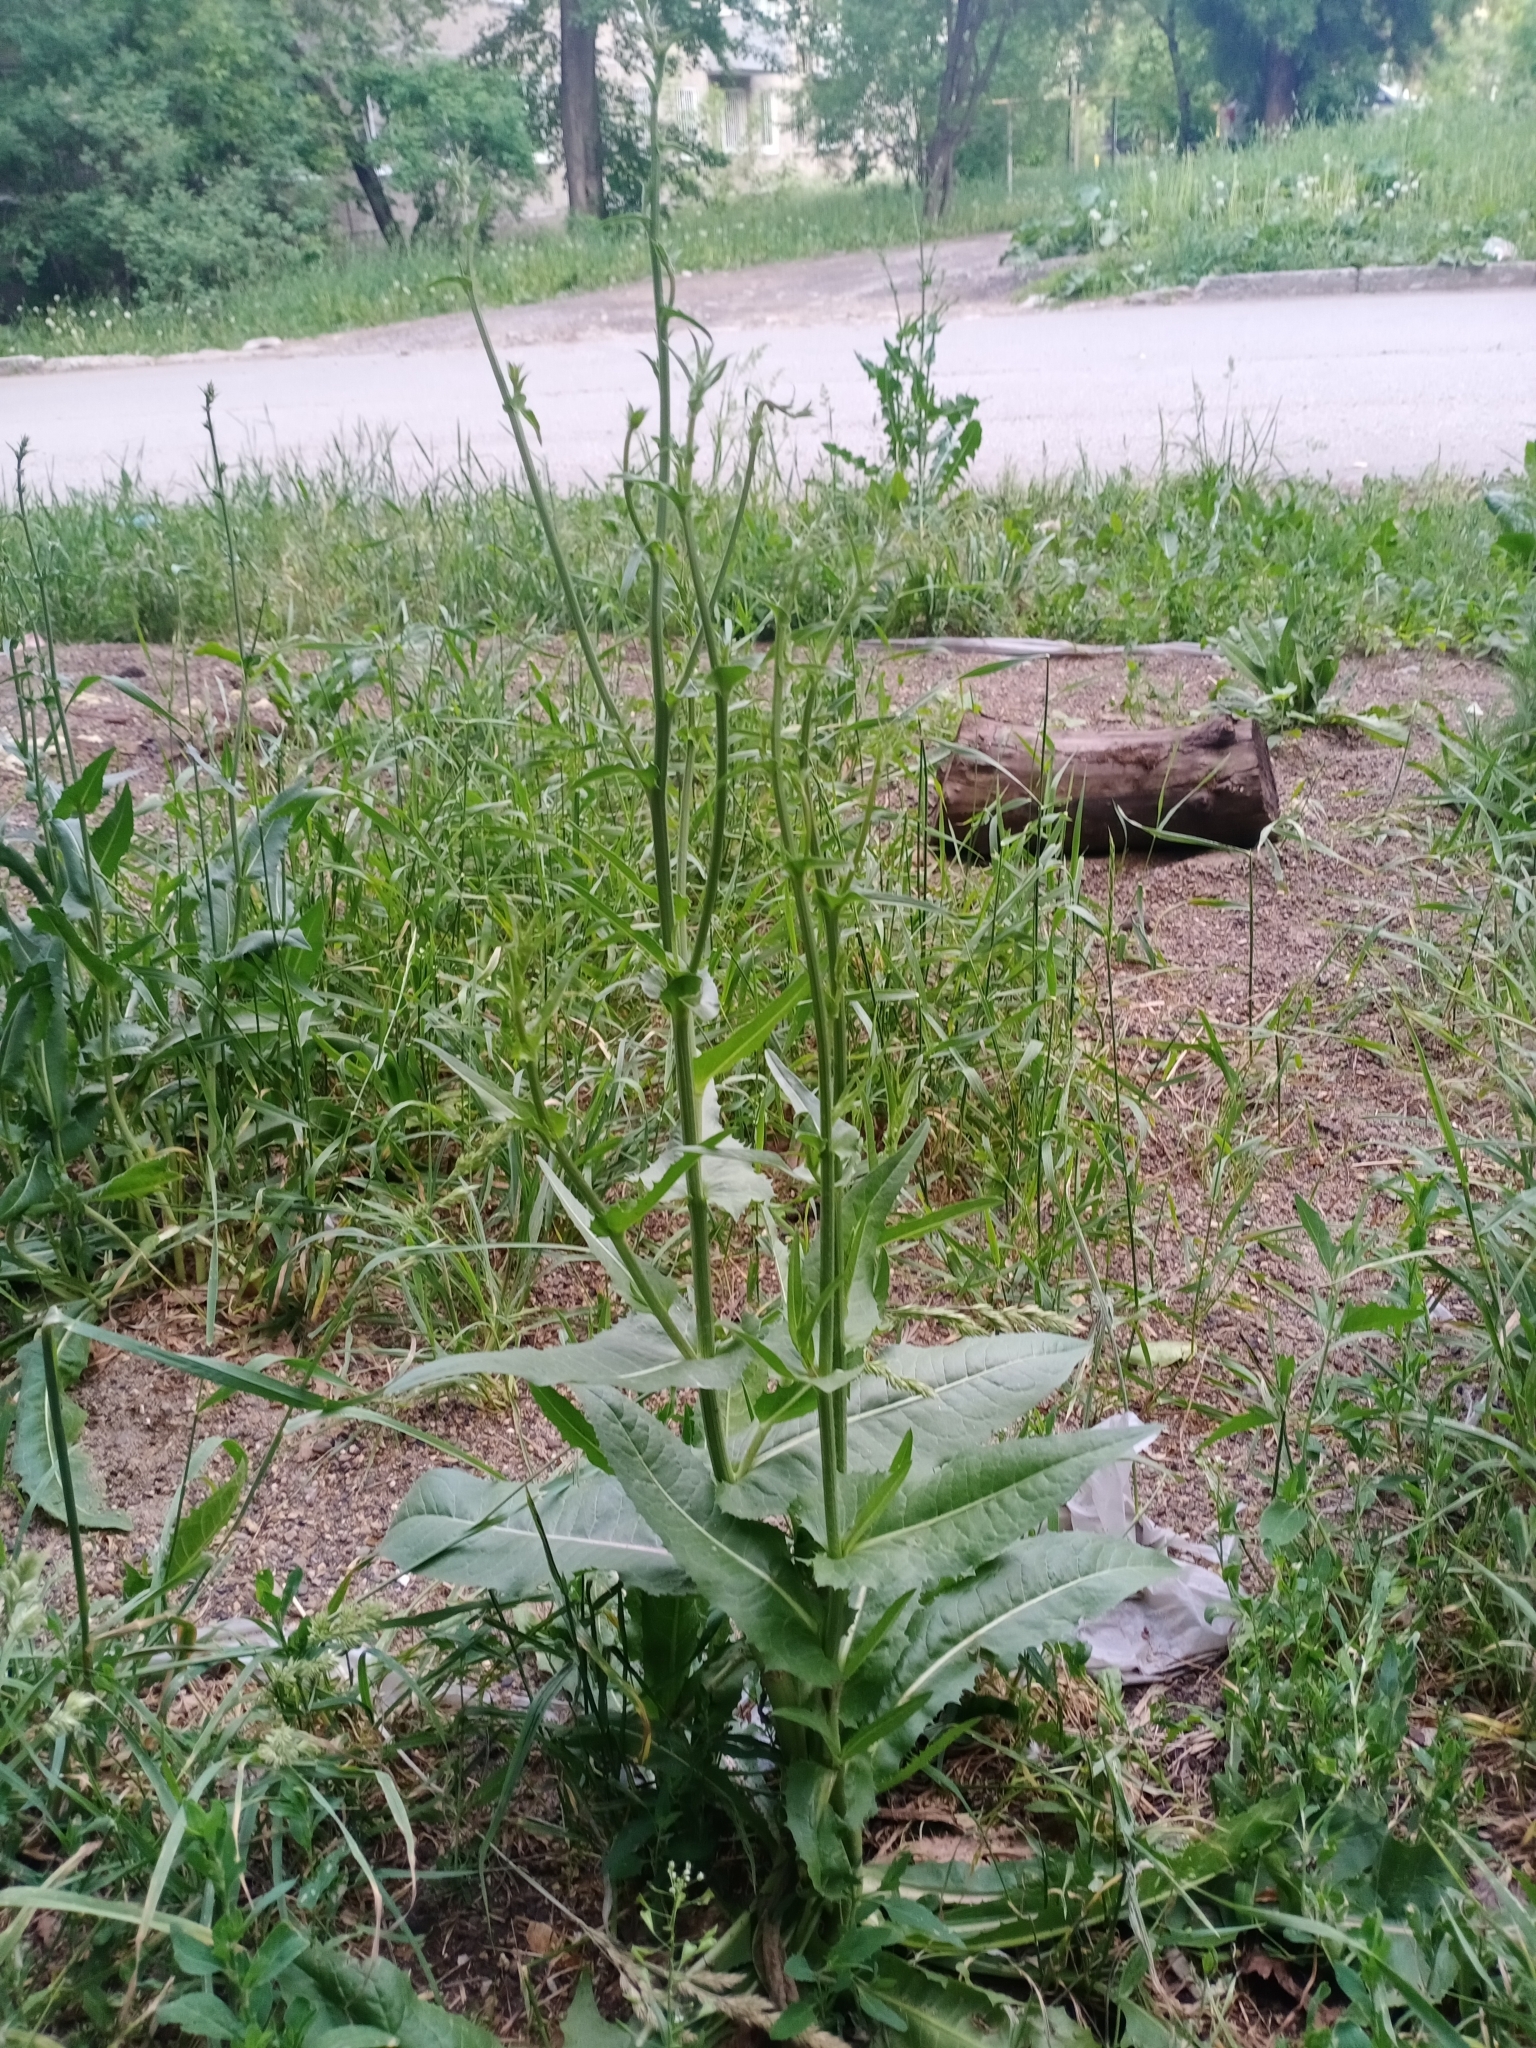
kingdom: Plantae
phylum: Tracheophyta
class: Magnoliopsida
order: Asterales
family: Asteraceae
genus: Cichorium
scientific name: Cichorium intybus
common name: Chicory
